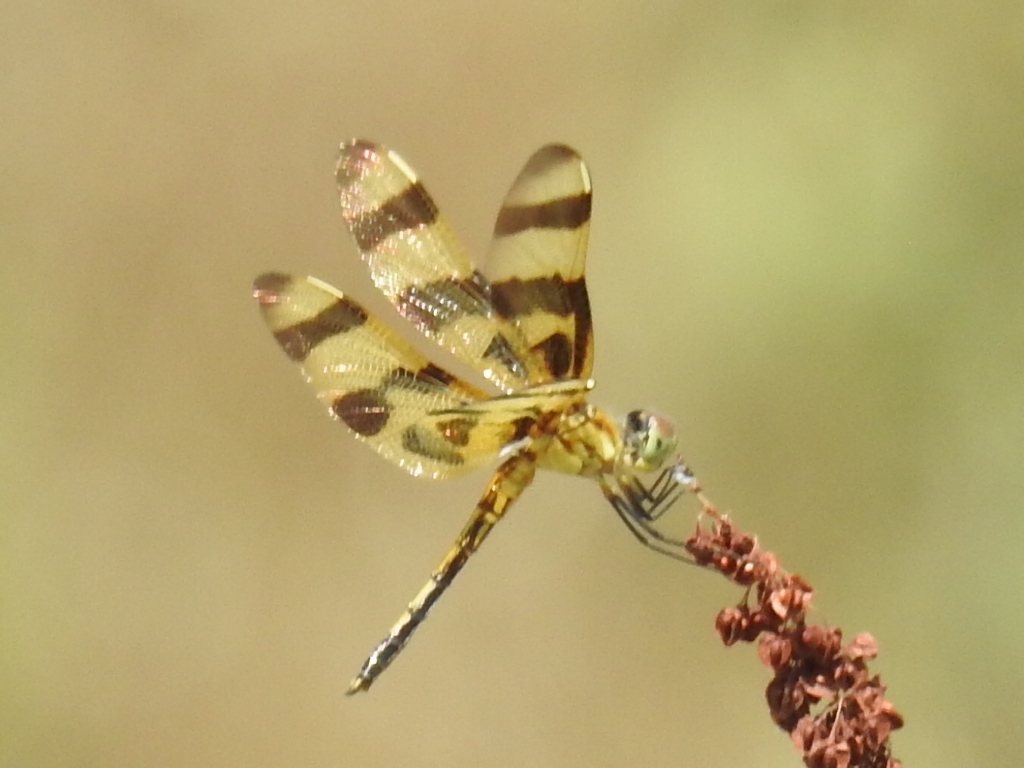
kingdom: Animalia
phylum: Arthropoda
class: Insecta
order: Odonata
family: Libellulidae
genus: Celithemis
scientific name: Celithemis eponina
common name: Halloween pennant
